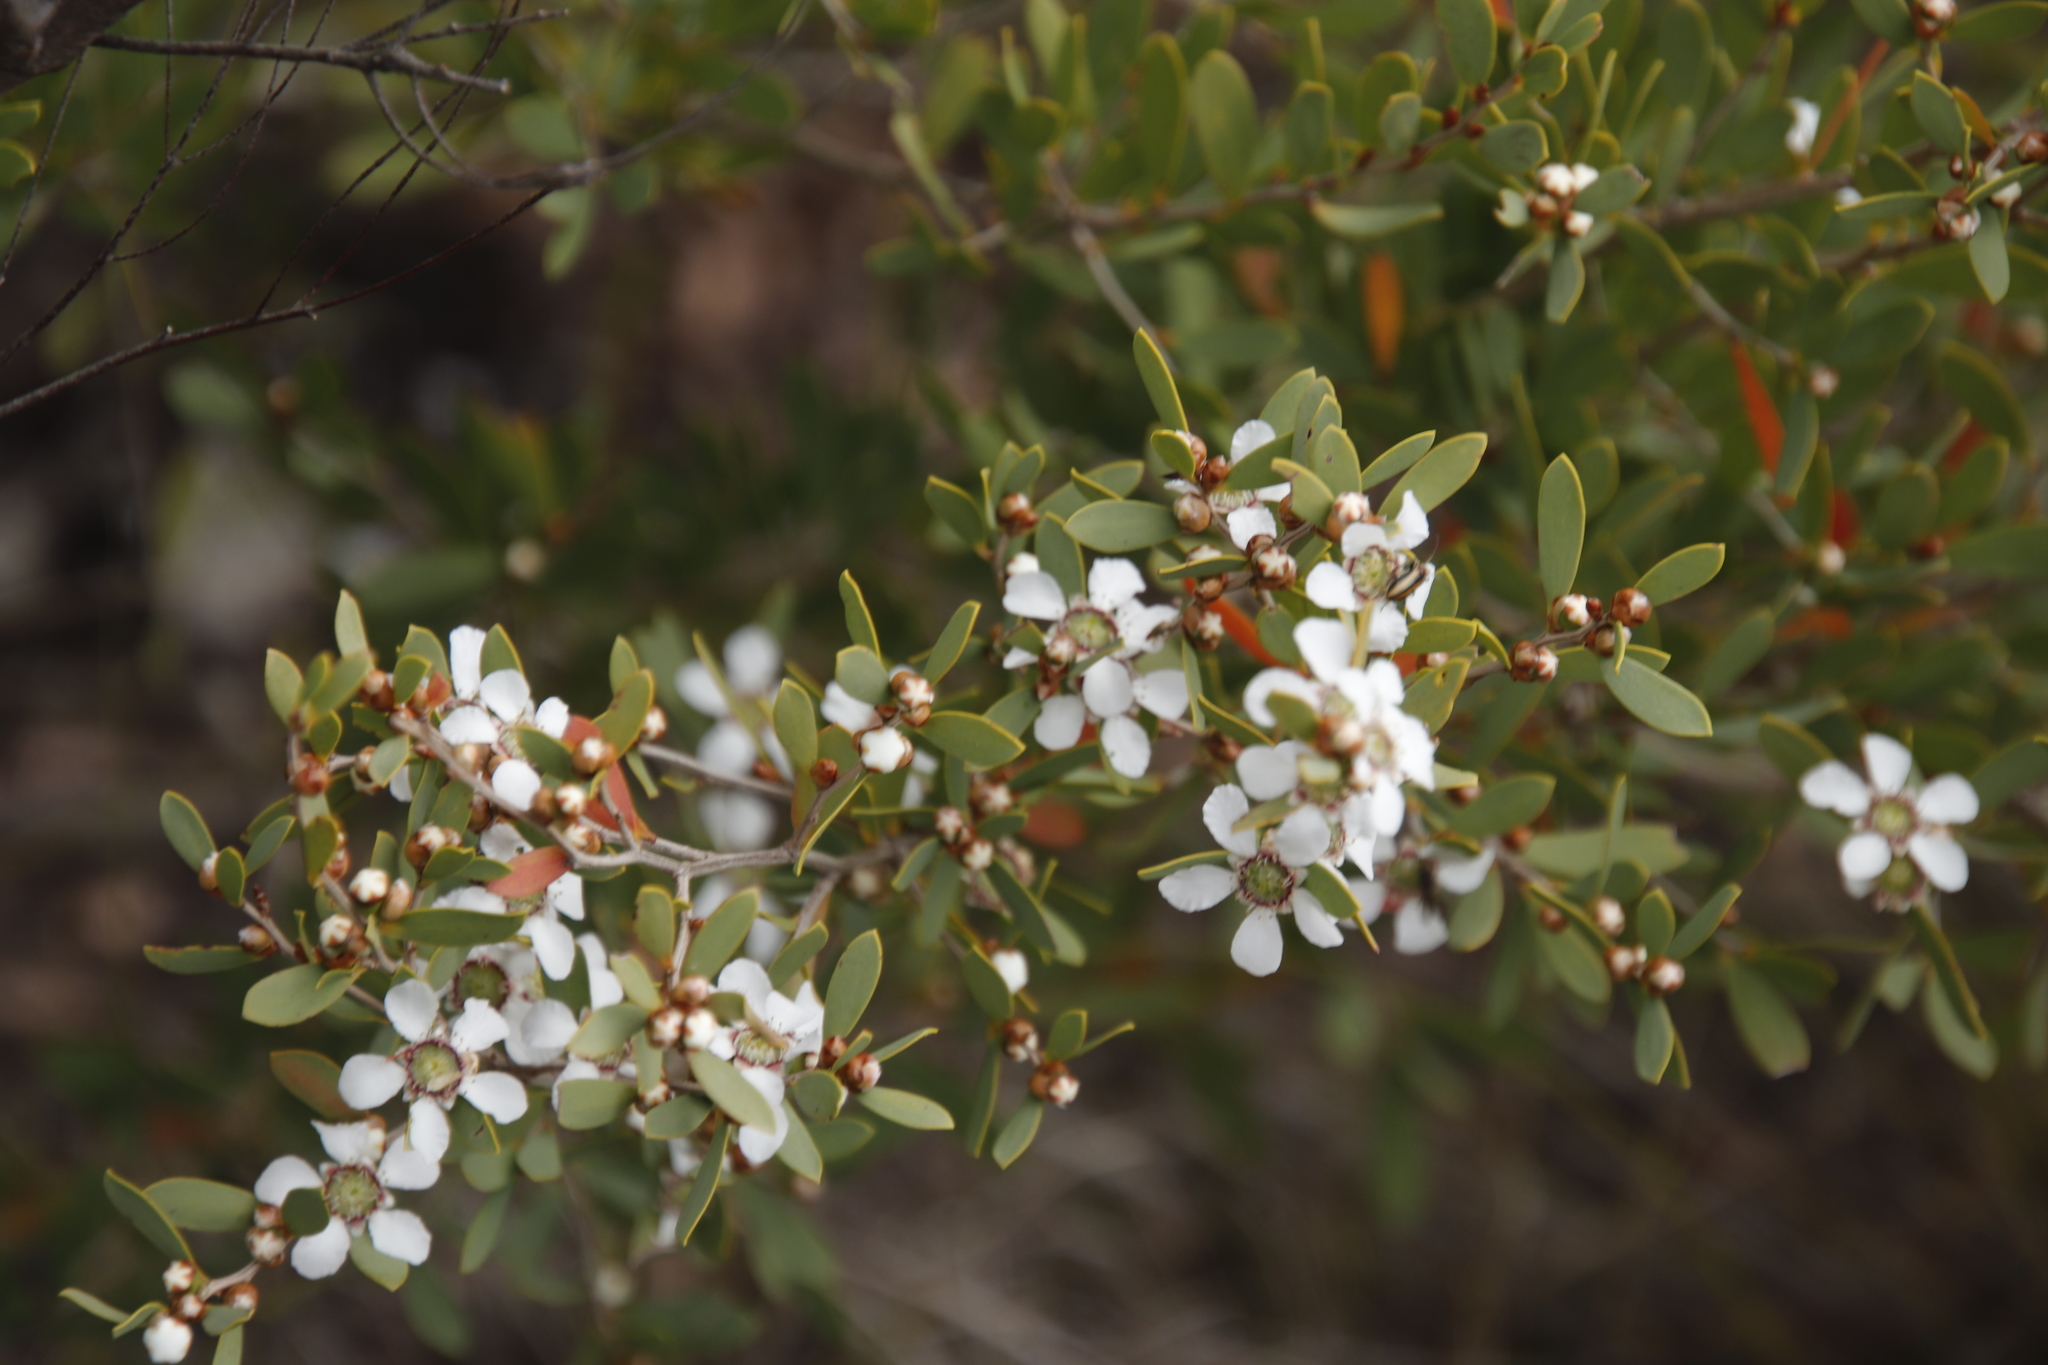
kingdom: Plantae
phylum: Tracheophyta
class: Magnoliopsida
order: Myrtales
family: Myrtaceae
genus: Leptospermum
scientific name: Leptospermum laevigatum
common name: Australian teatree
